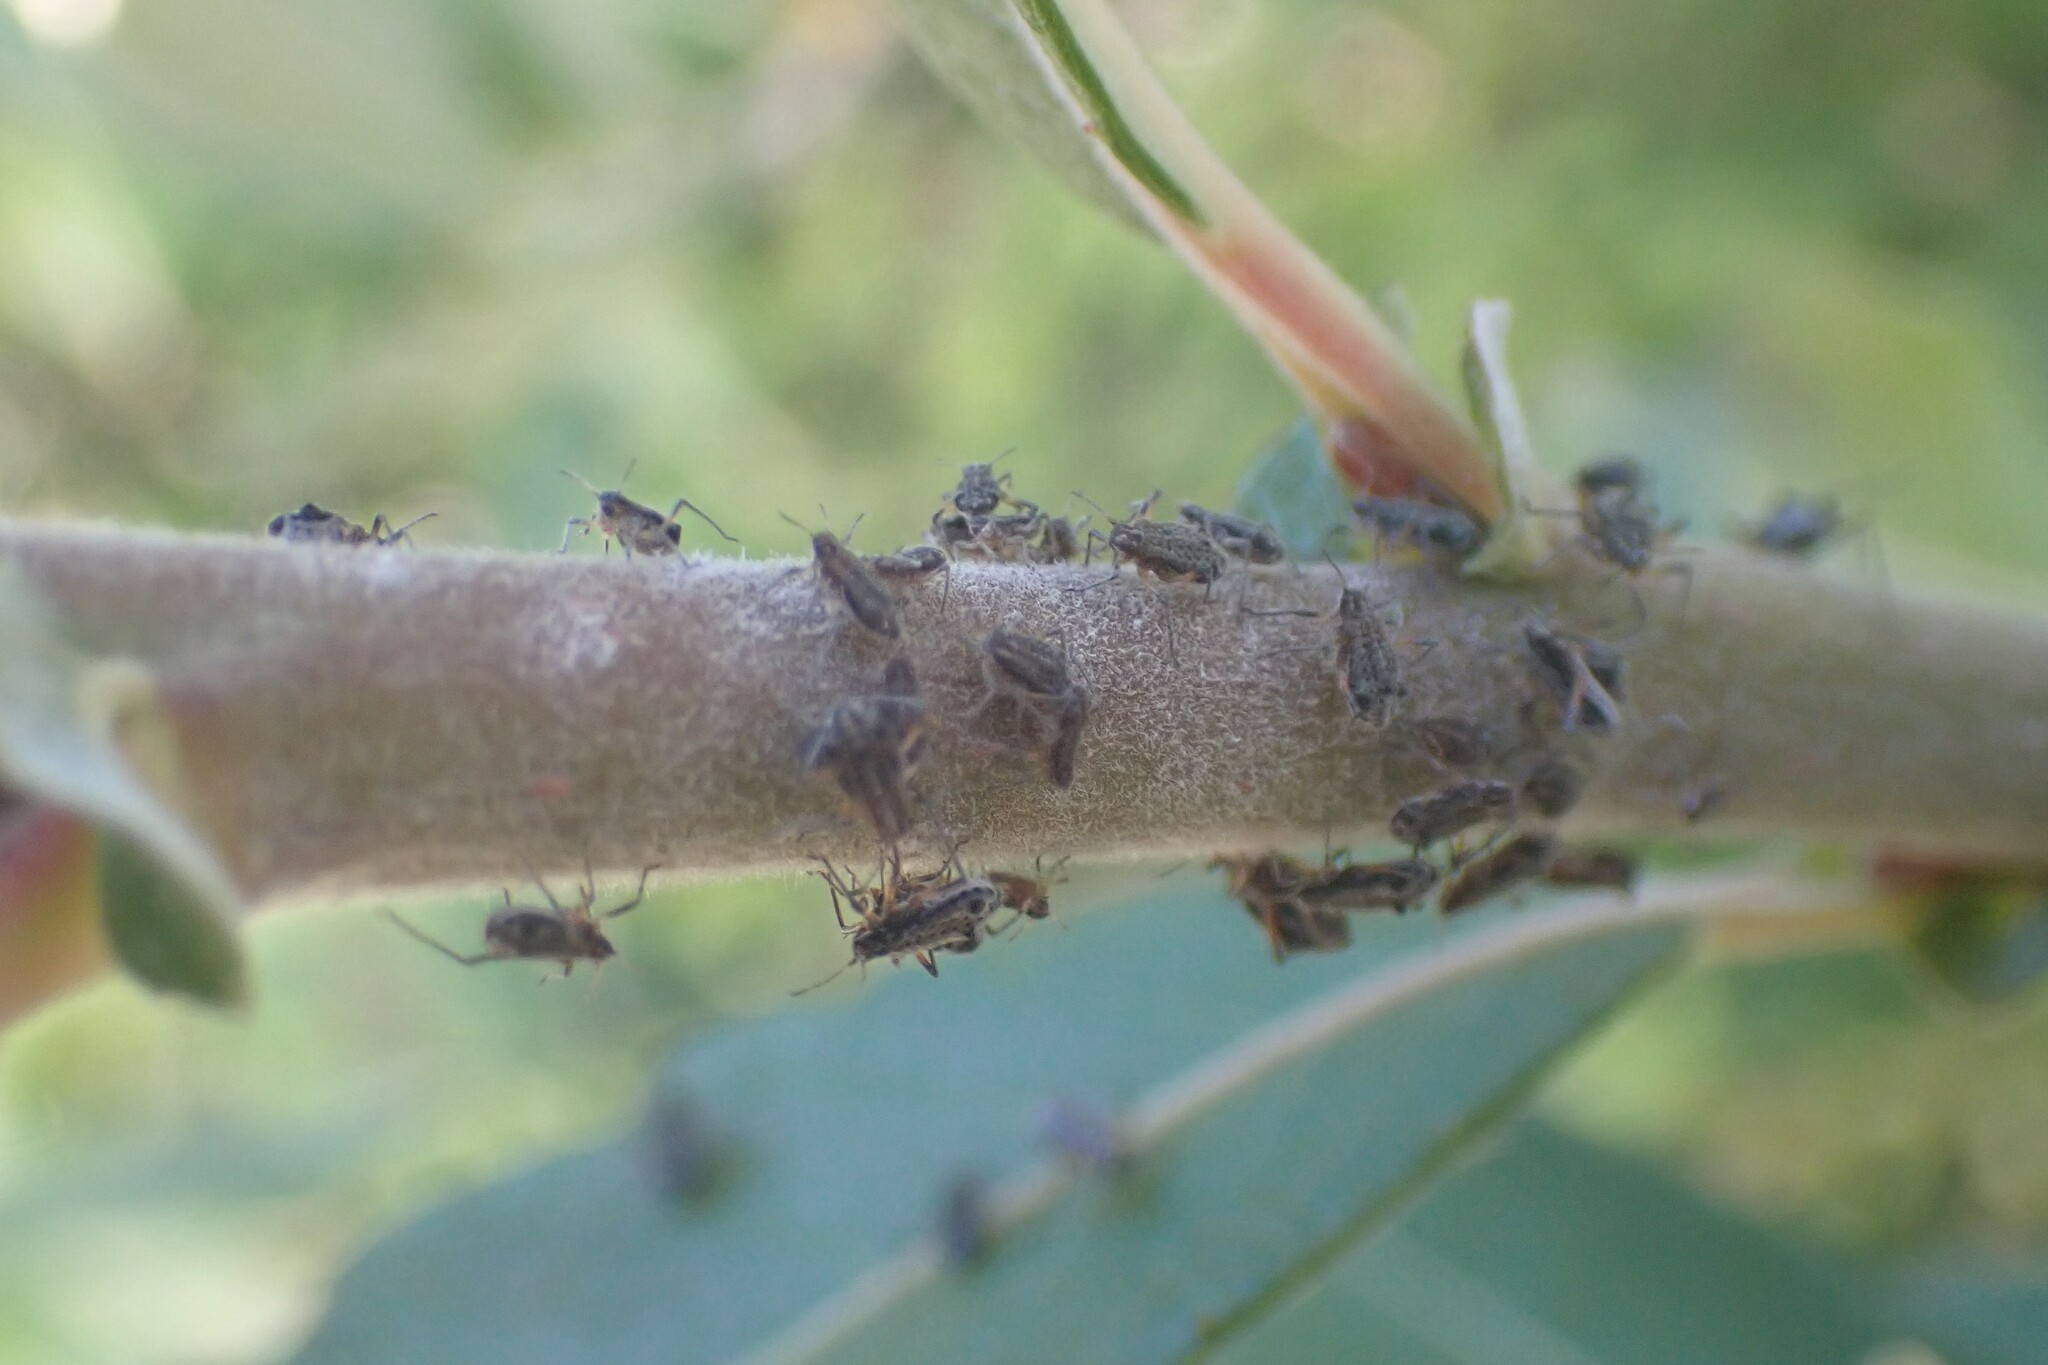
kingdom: Animalia
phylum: Arthropoda
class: Insecta
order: Hemiptera
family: Aphididae
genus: Tuberolachnus
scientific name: Tuberolachnus salignus
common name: Giant willow aphid
